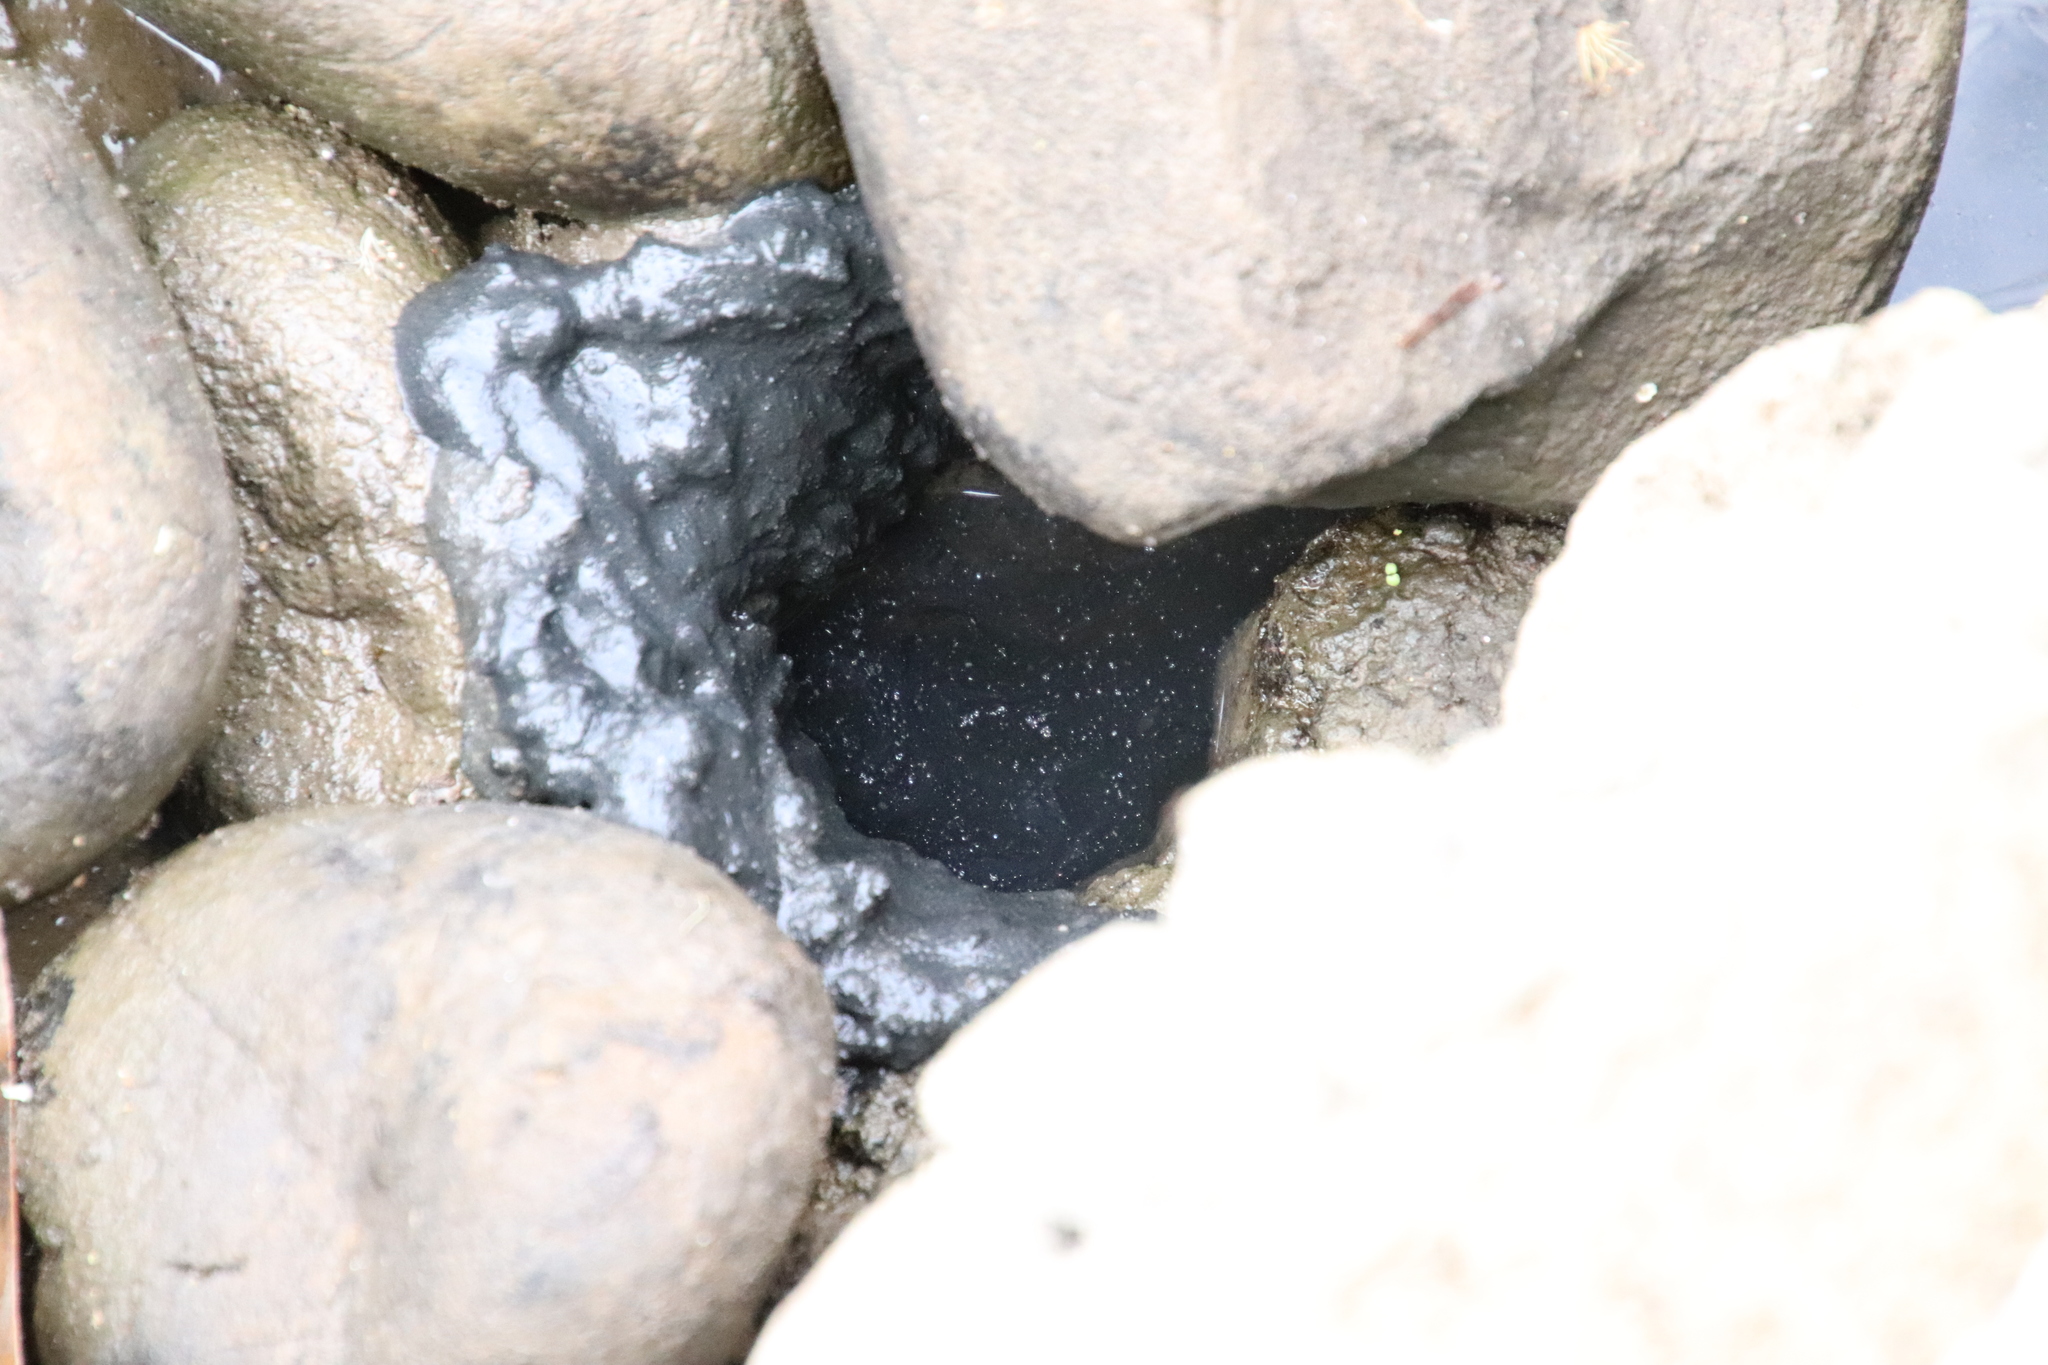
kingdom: Animalia
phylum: Arthropoda
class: Malacostraca
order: Decapoda
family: Cambaridae
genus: Procambarus
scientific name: Procambarus clarkii
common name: Red swamp crayfish
